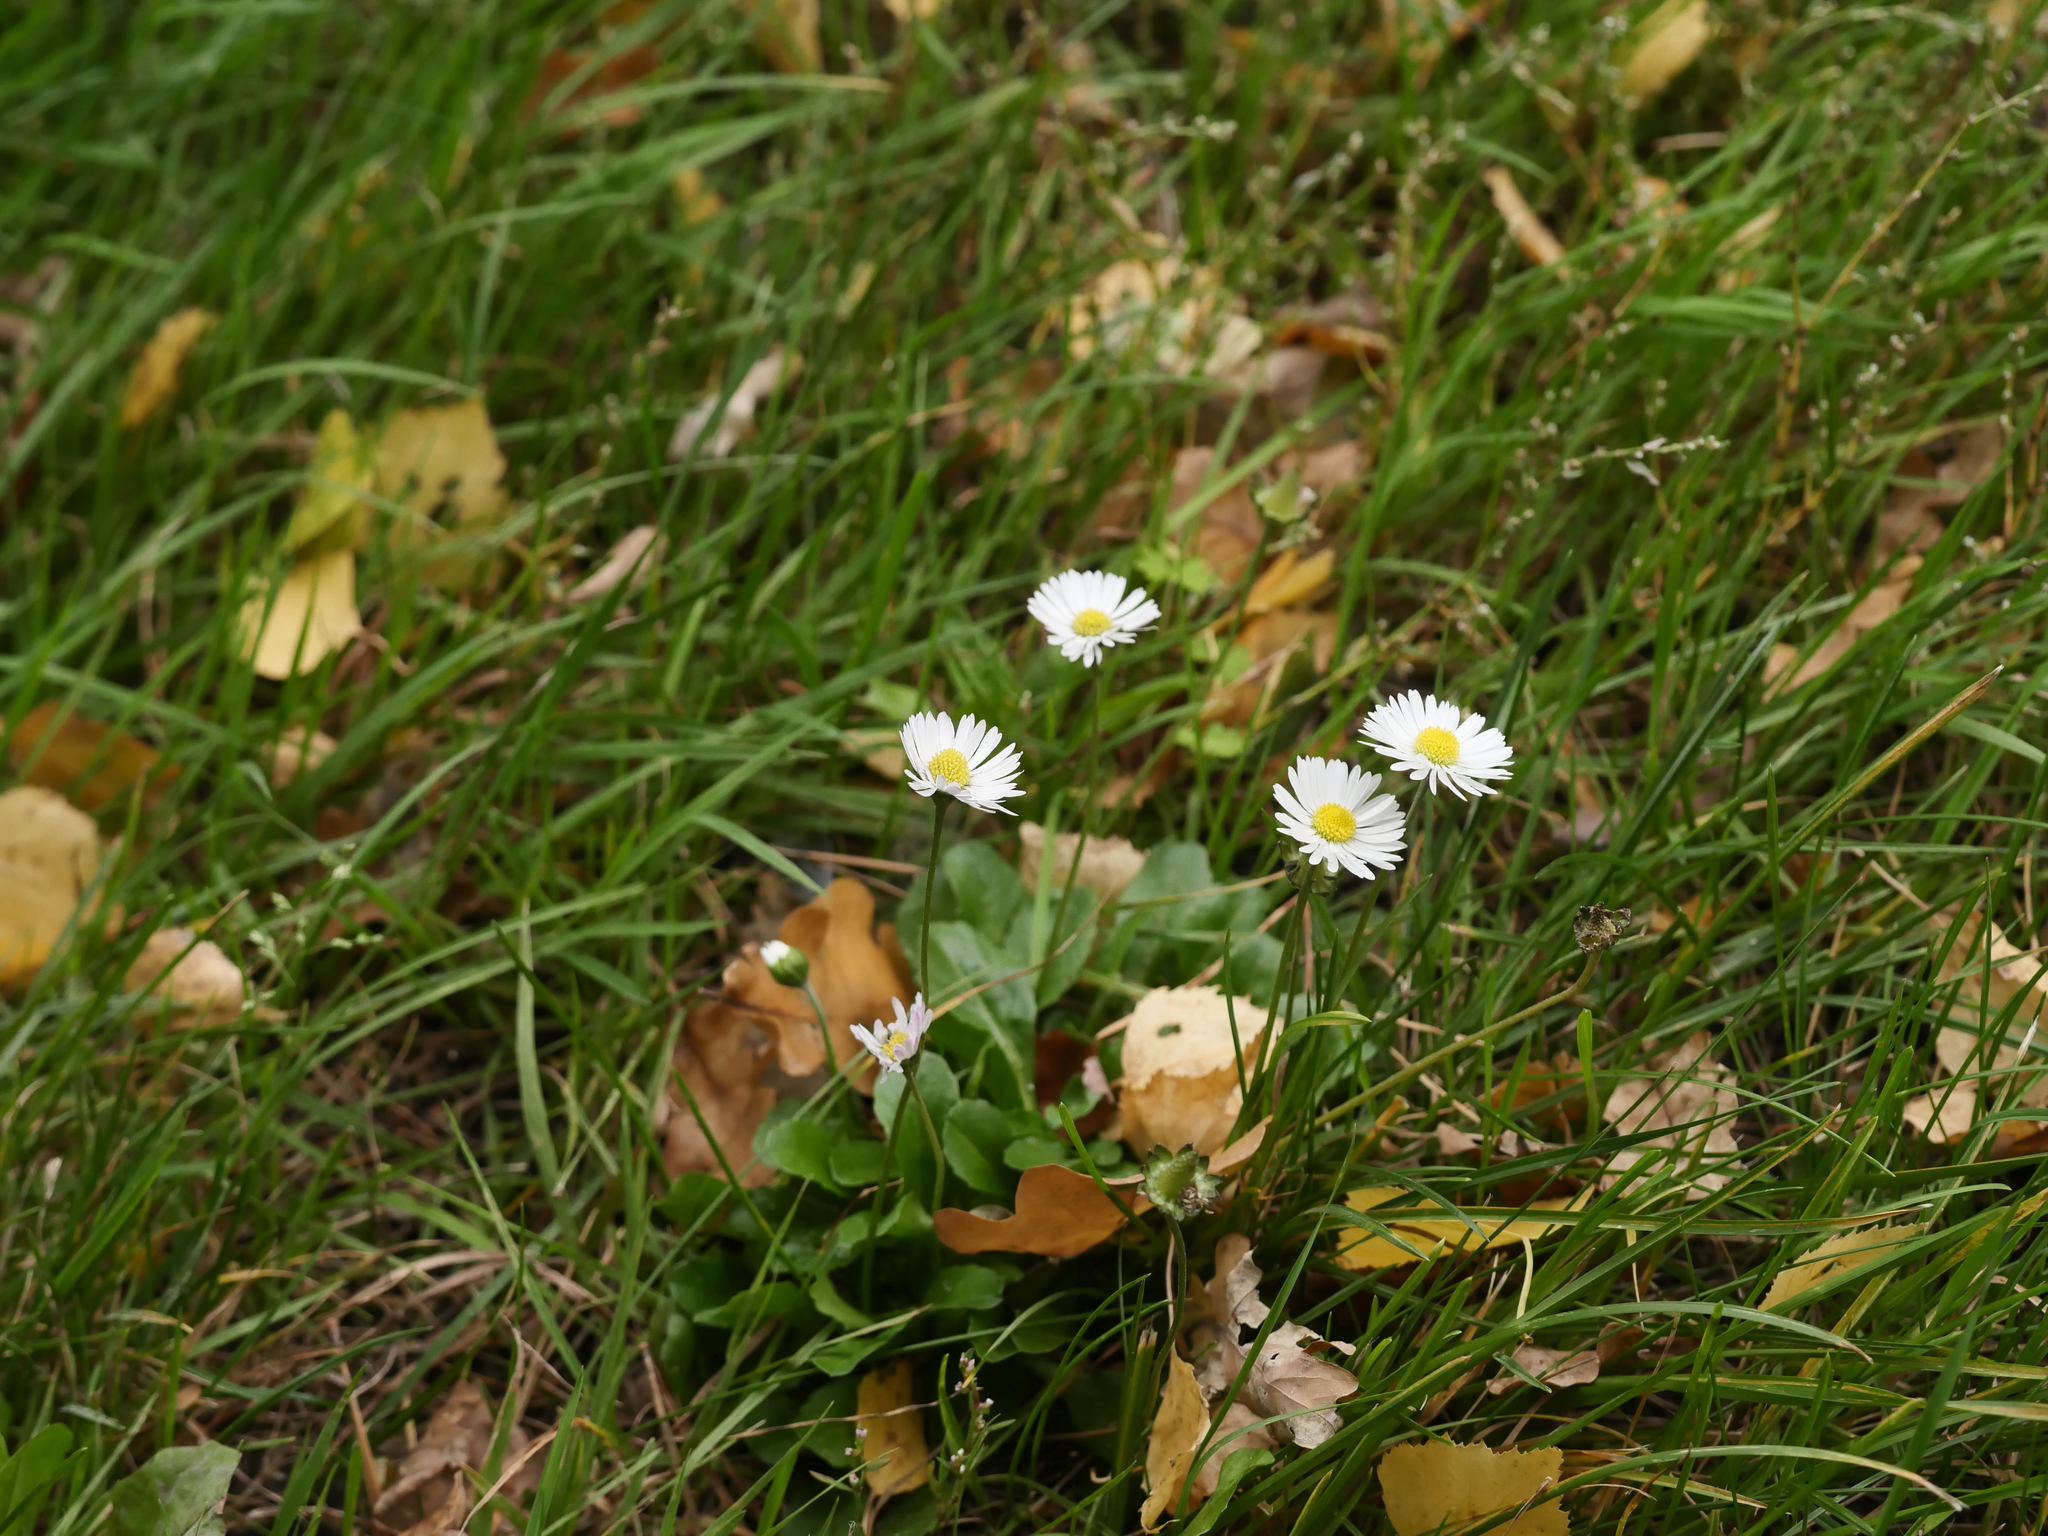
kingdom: Plantae
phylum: Tracheophyta
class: Magnoliopsida
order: Asterales
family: Asteraceae
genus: Bellis
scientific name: Bellis perennis
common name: Lawndaisy
